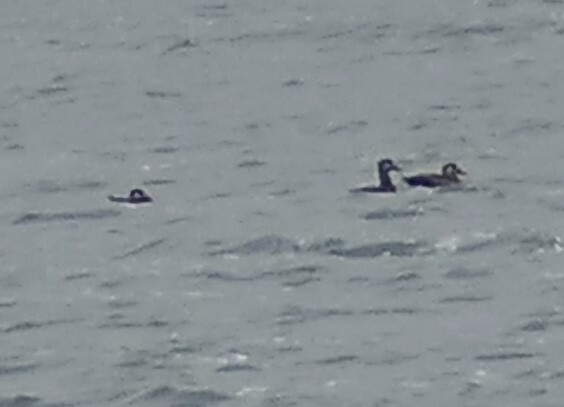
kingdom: Animalia
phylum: Chordata
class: Aves
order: Anseriformes
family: Anatidae
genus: Melanitta
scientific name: Melanitta perspicillata
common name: Surf scoter
